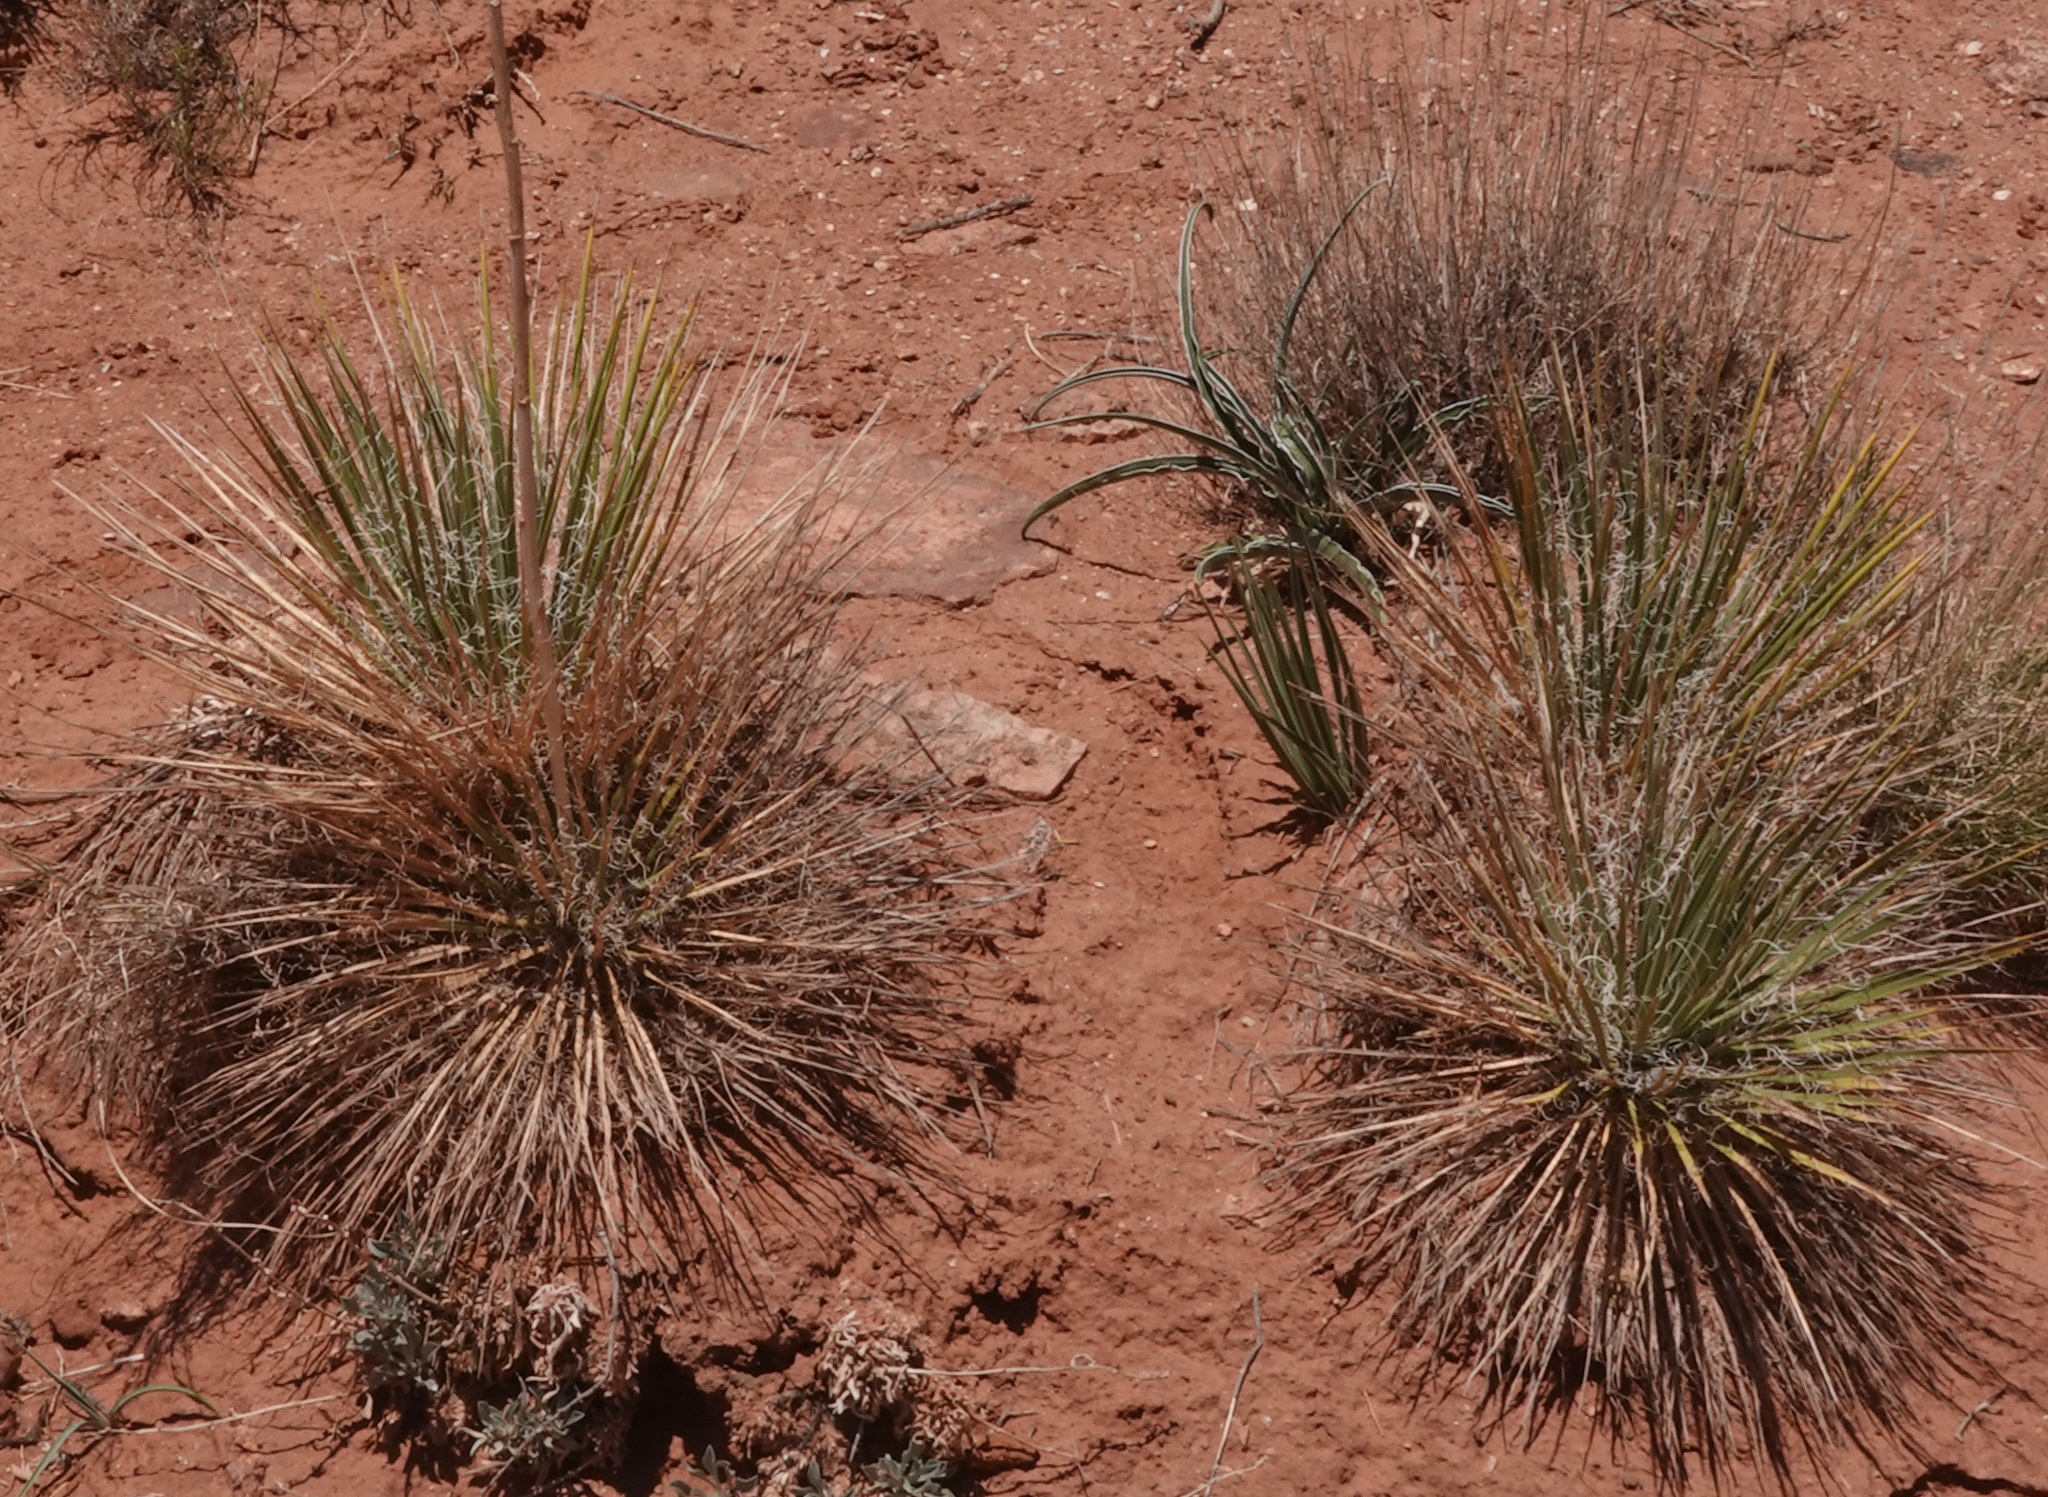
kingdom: Plantae
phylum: Tracheophyta
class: Liliopsida
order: Asparagales
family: Asparagaceae
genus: Yucca
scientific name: Yucca angustissima
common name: Narrowleaf yucca
